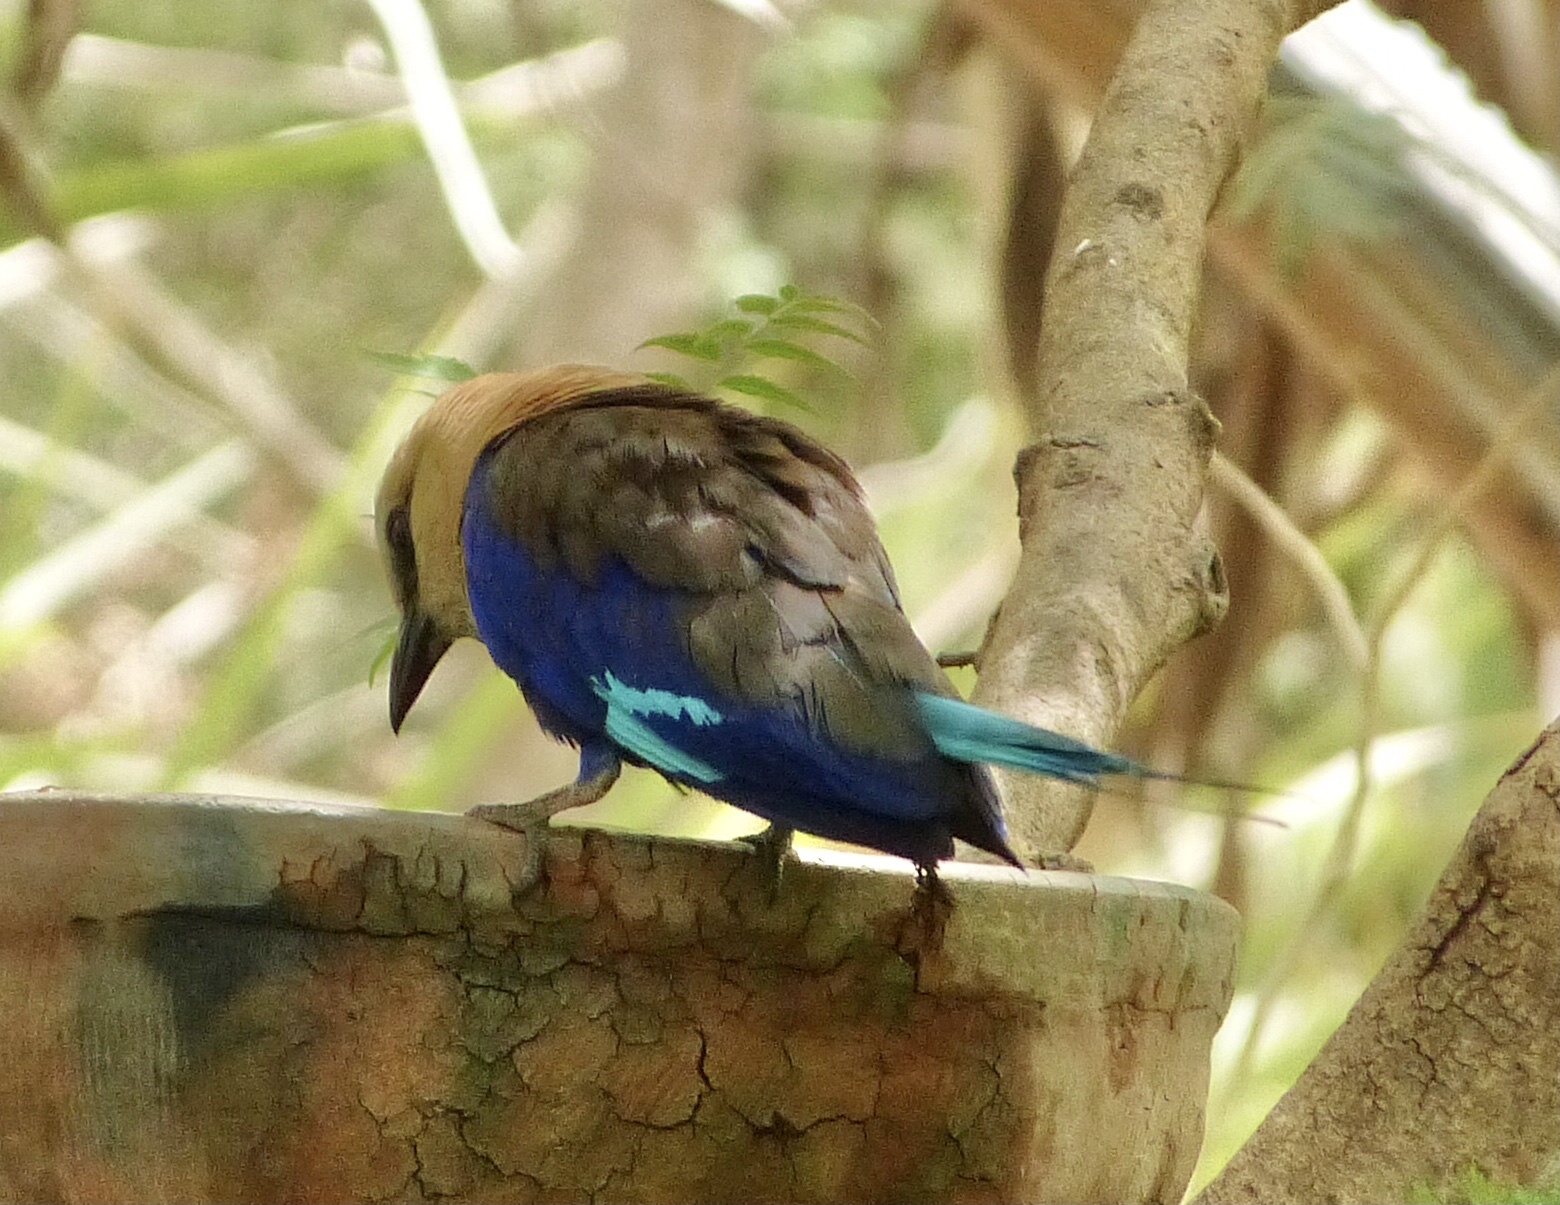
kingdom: Animalia
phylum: Chordata
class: Aves
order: Coraciiformes
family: Coraciidae
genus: Coracias
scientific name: Coracias cyanogaster
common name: Blue-bellied roller
